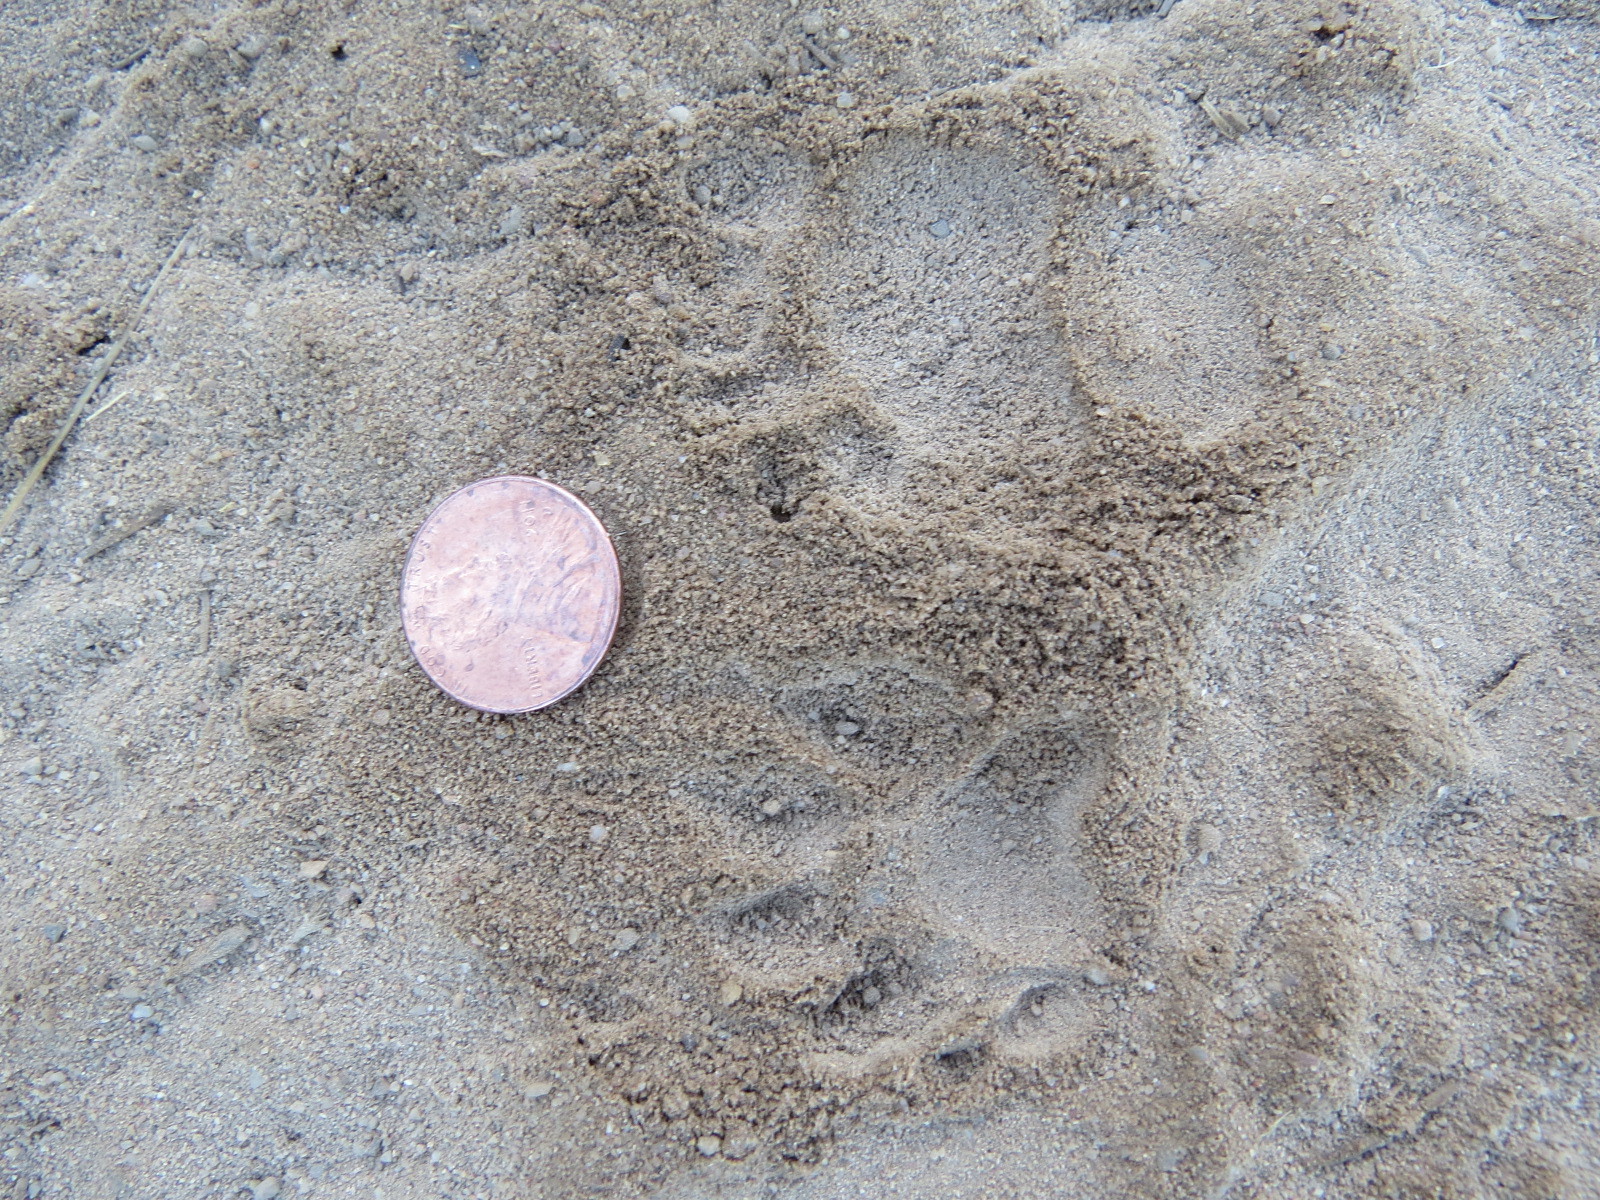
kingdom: Animalia
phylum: Chordata
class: Mammalia
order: Carnivora
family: Mephitidae
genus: Mephitis
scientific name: Mephitis mephitis
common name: Striped skunk
